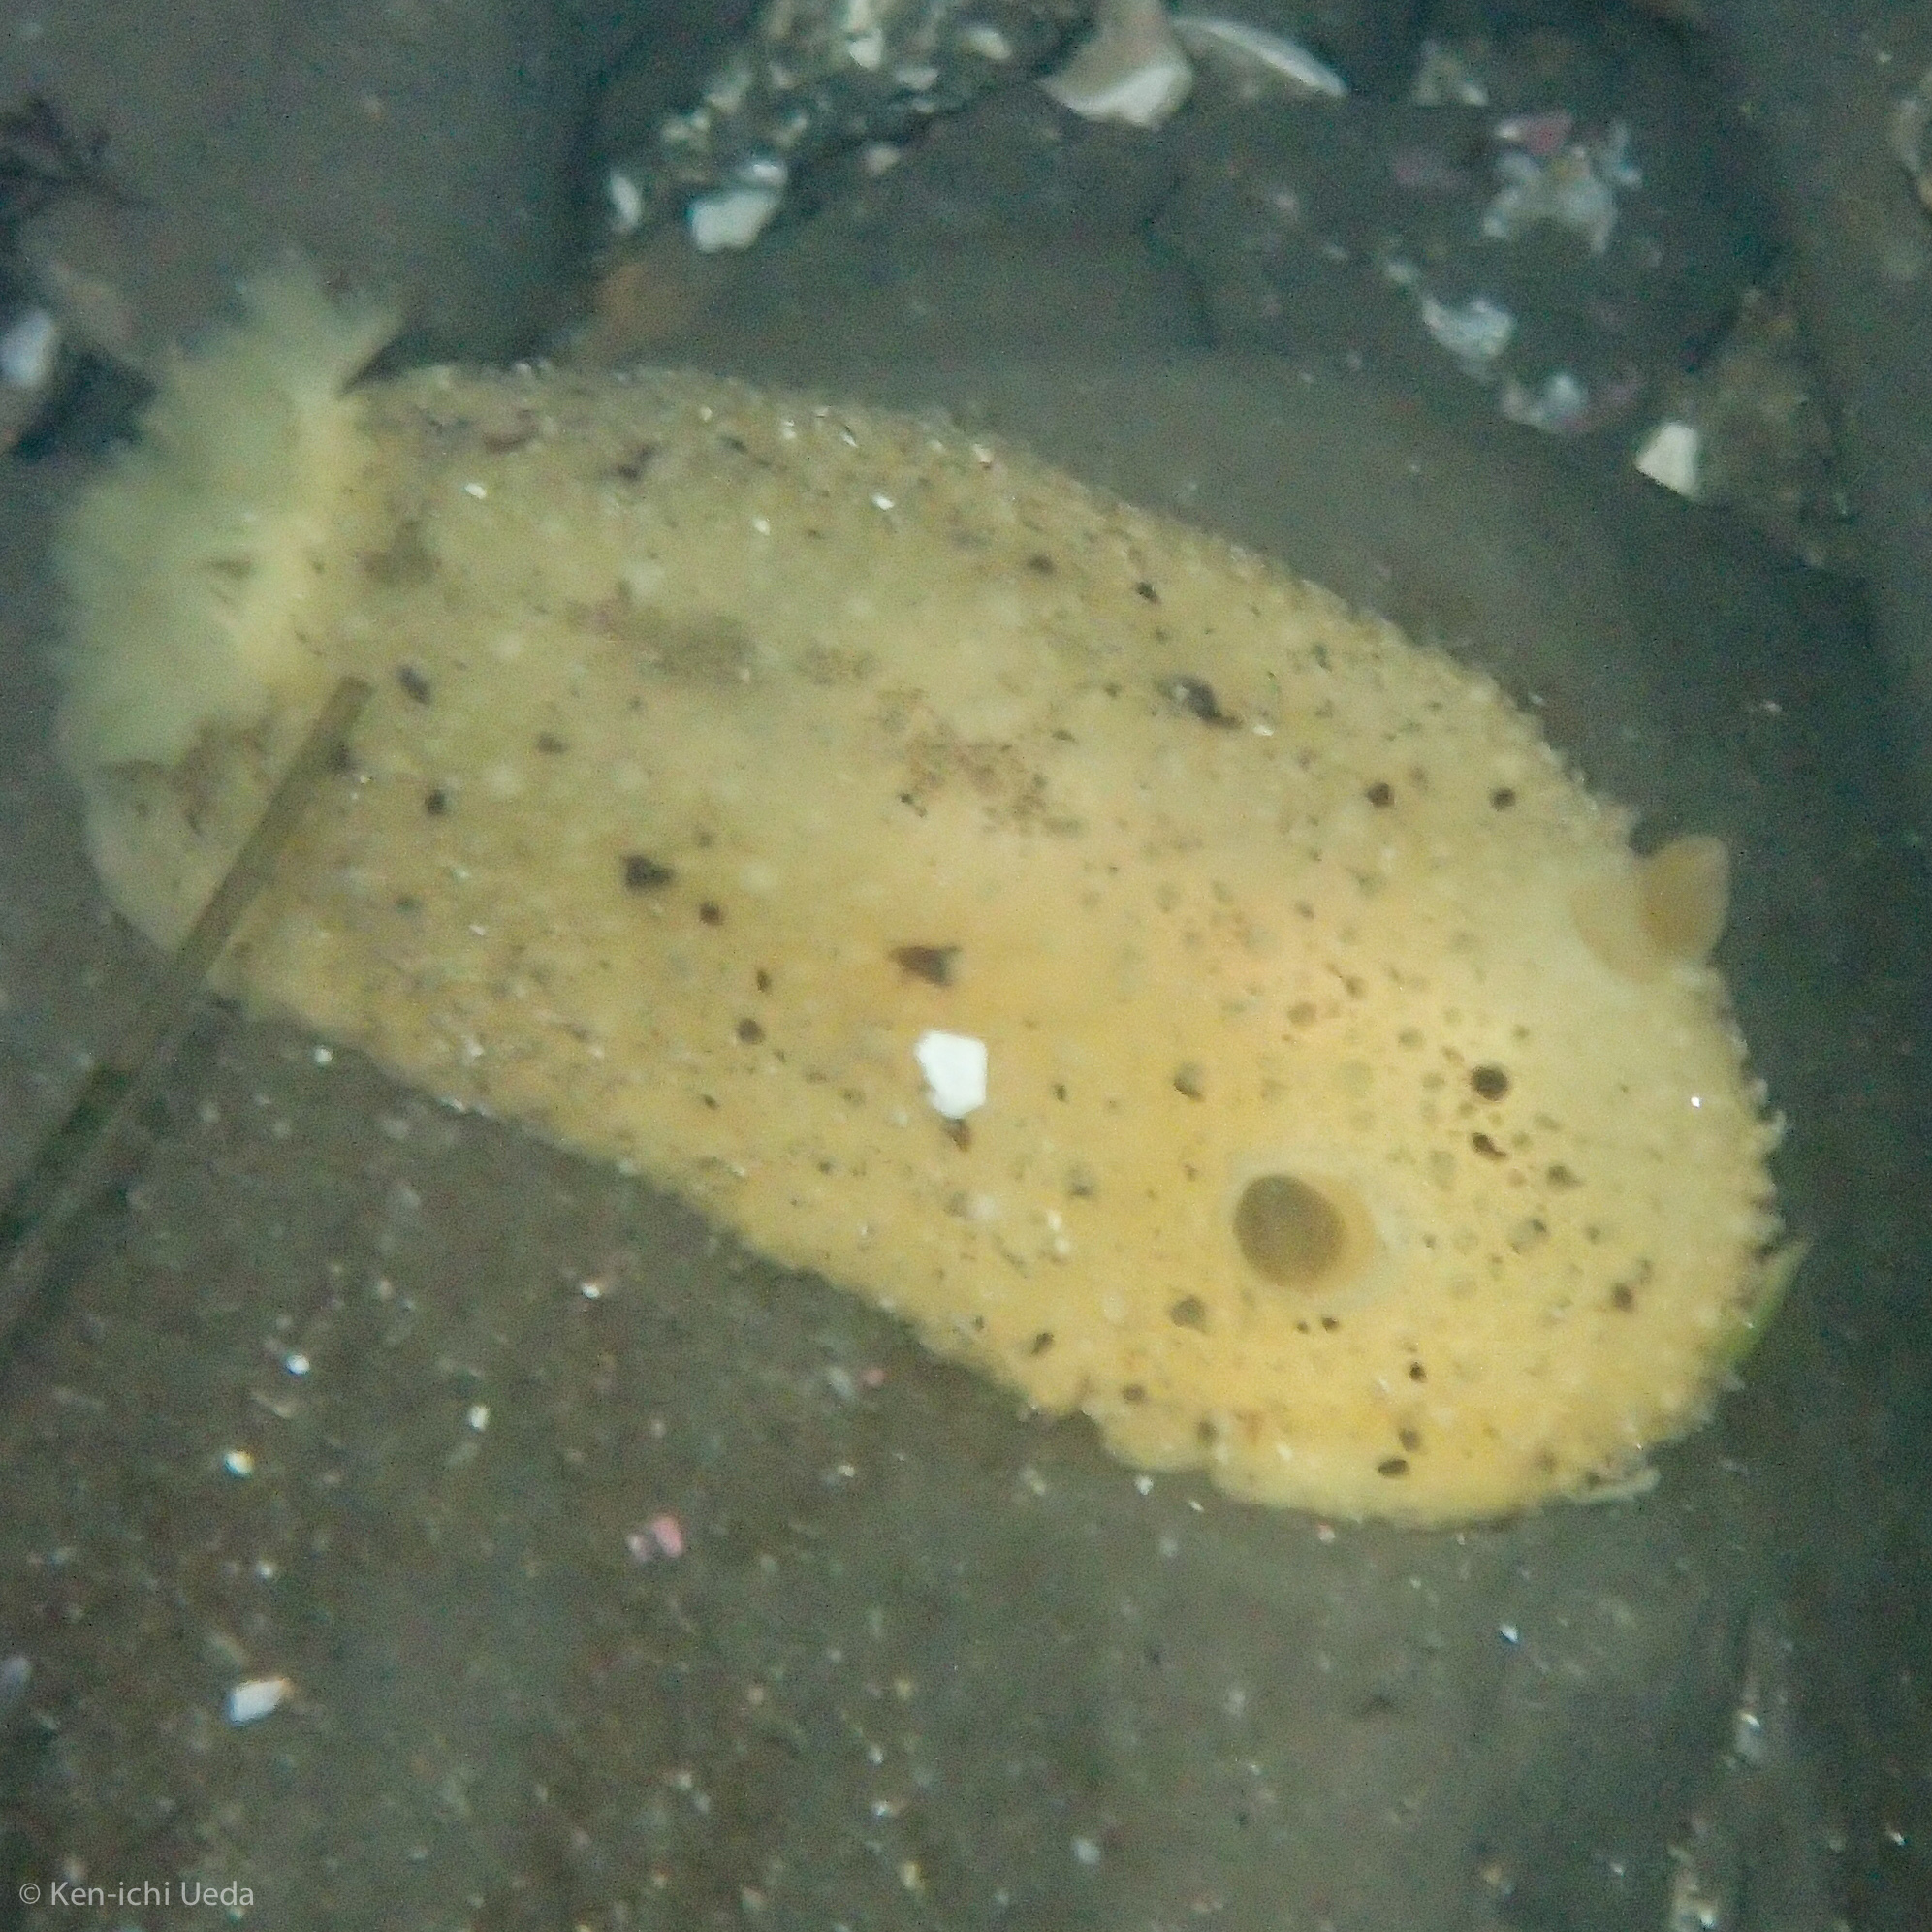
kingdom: Animalia
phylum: Mollusca
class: Gastropoda
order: Nudibranchia
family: Dorididae
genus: Doris
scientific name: Doris montereyensis
